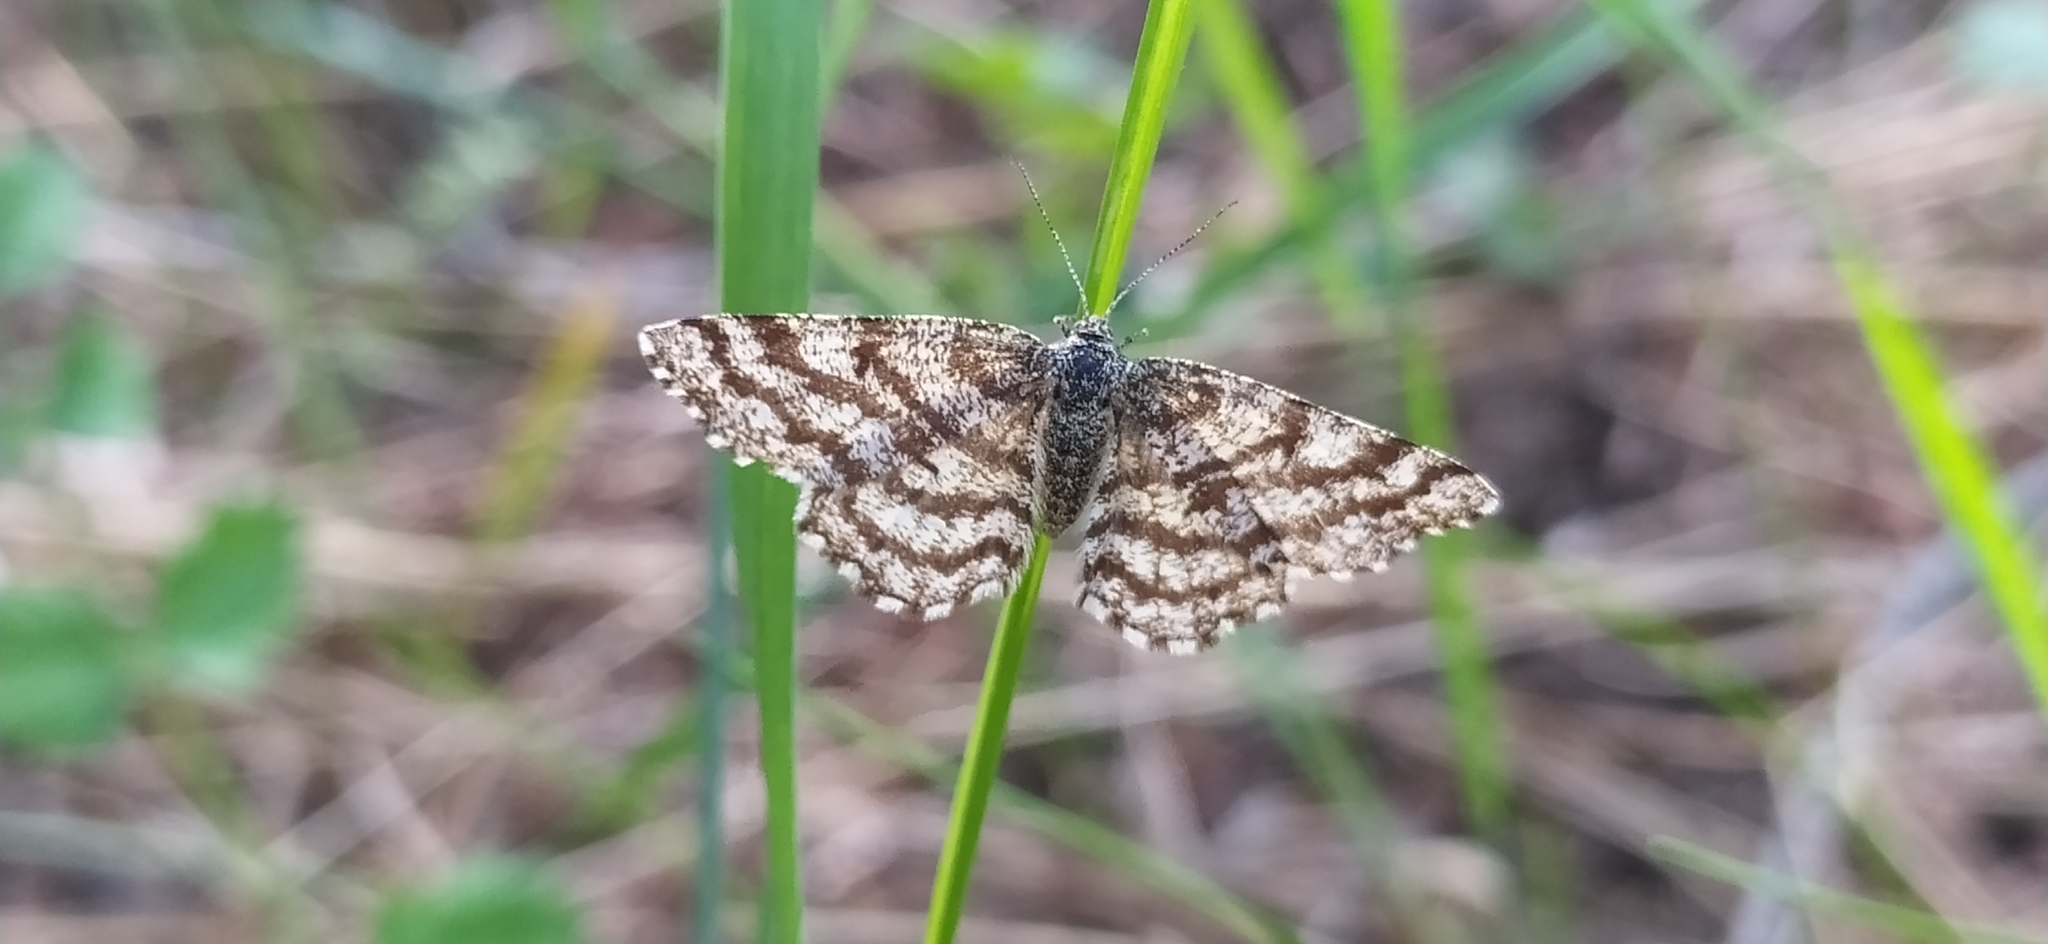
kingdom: Animalia
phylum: Arthropoda
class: Insecta
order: Lepidoptera
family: Geometridae
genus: Ematurga
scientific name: Ematurga atomaria
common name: Common heath
